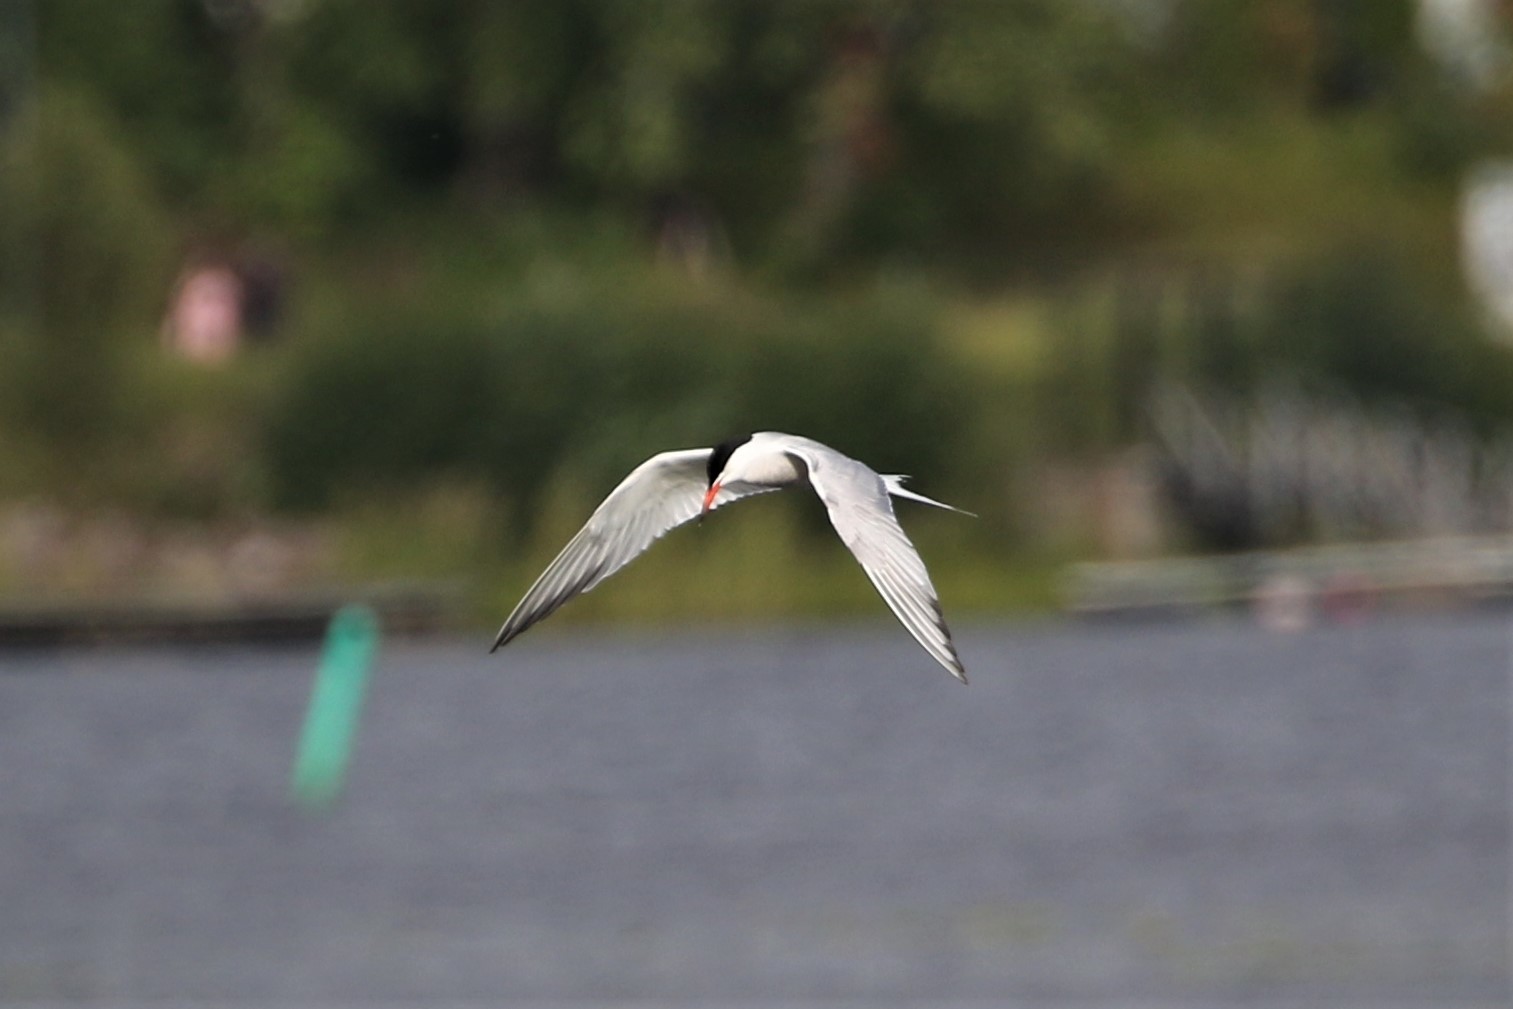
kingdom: Animalia
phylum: Chordata
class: Aves
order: Charadriiformes
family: Laridae
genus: Sterna
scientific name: Sterna hirundo
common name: Common tern
